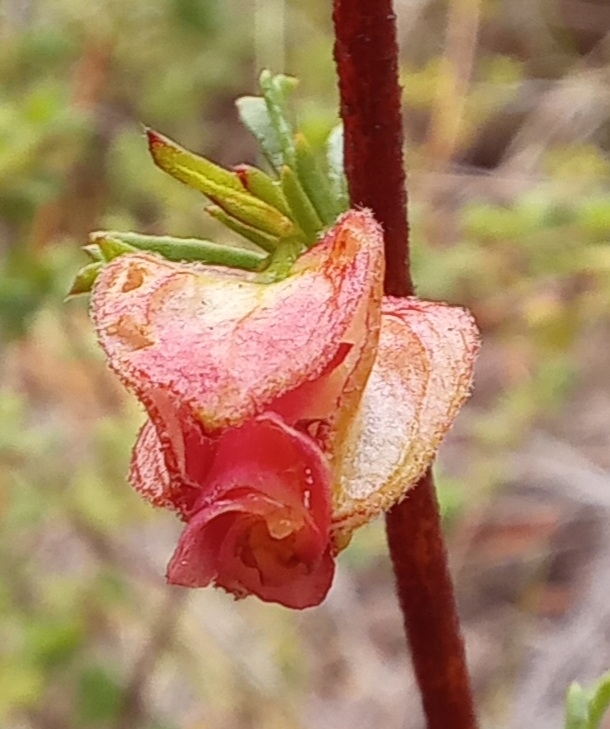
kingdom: Plantae
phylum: Tracheophyta
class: Magnoliopsida
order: Malvales
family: Malvaceae
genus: Hermannia
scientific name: Hermannia angularis
